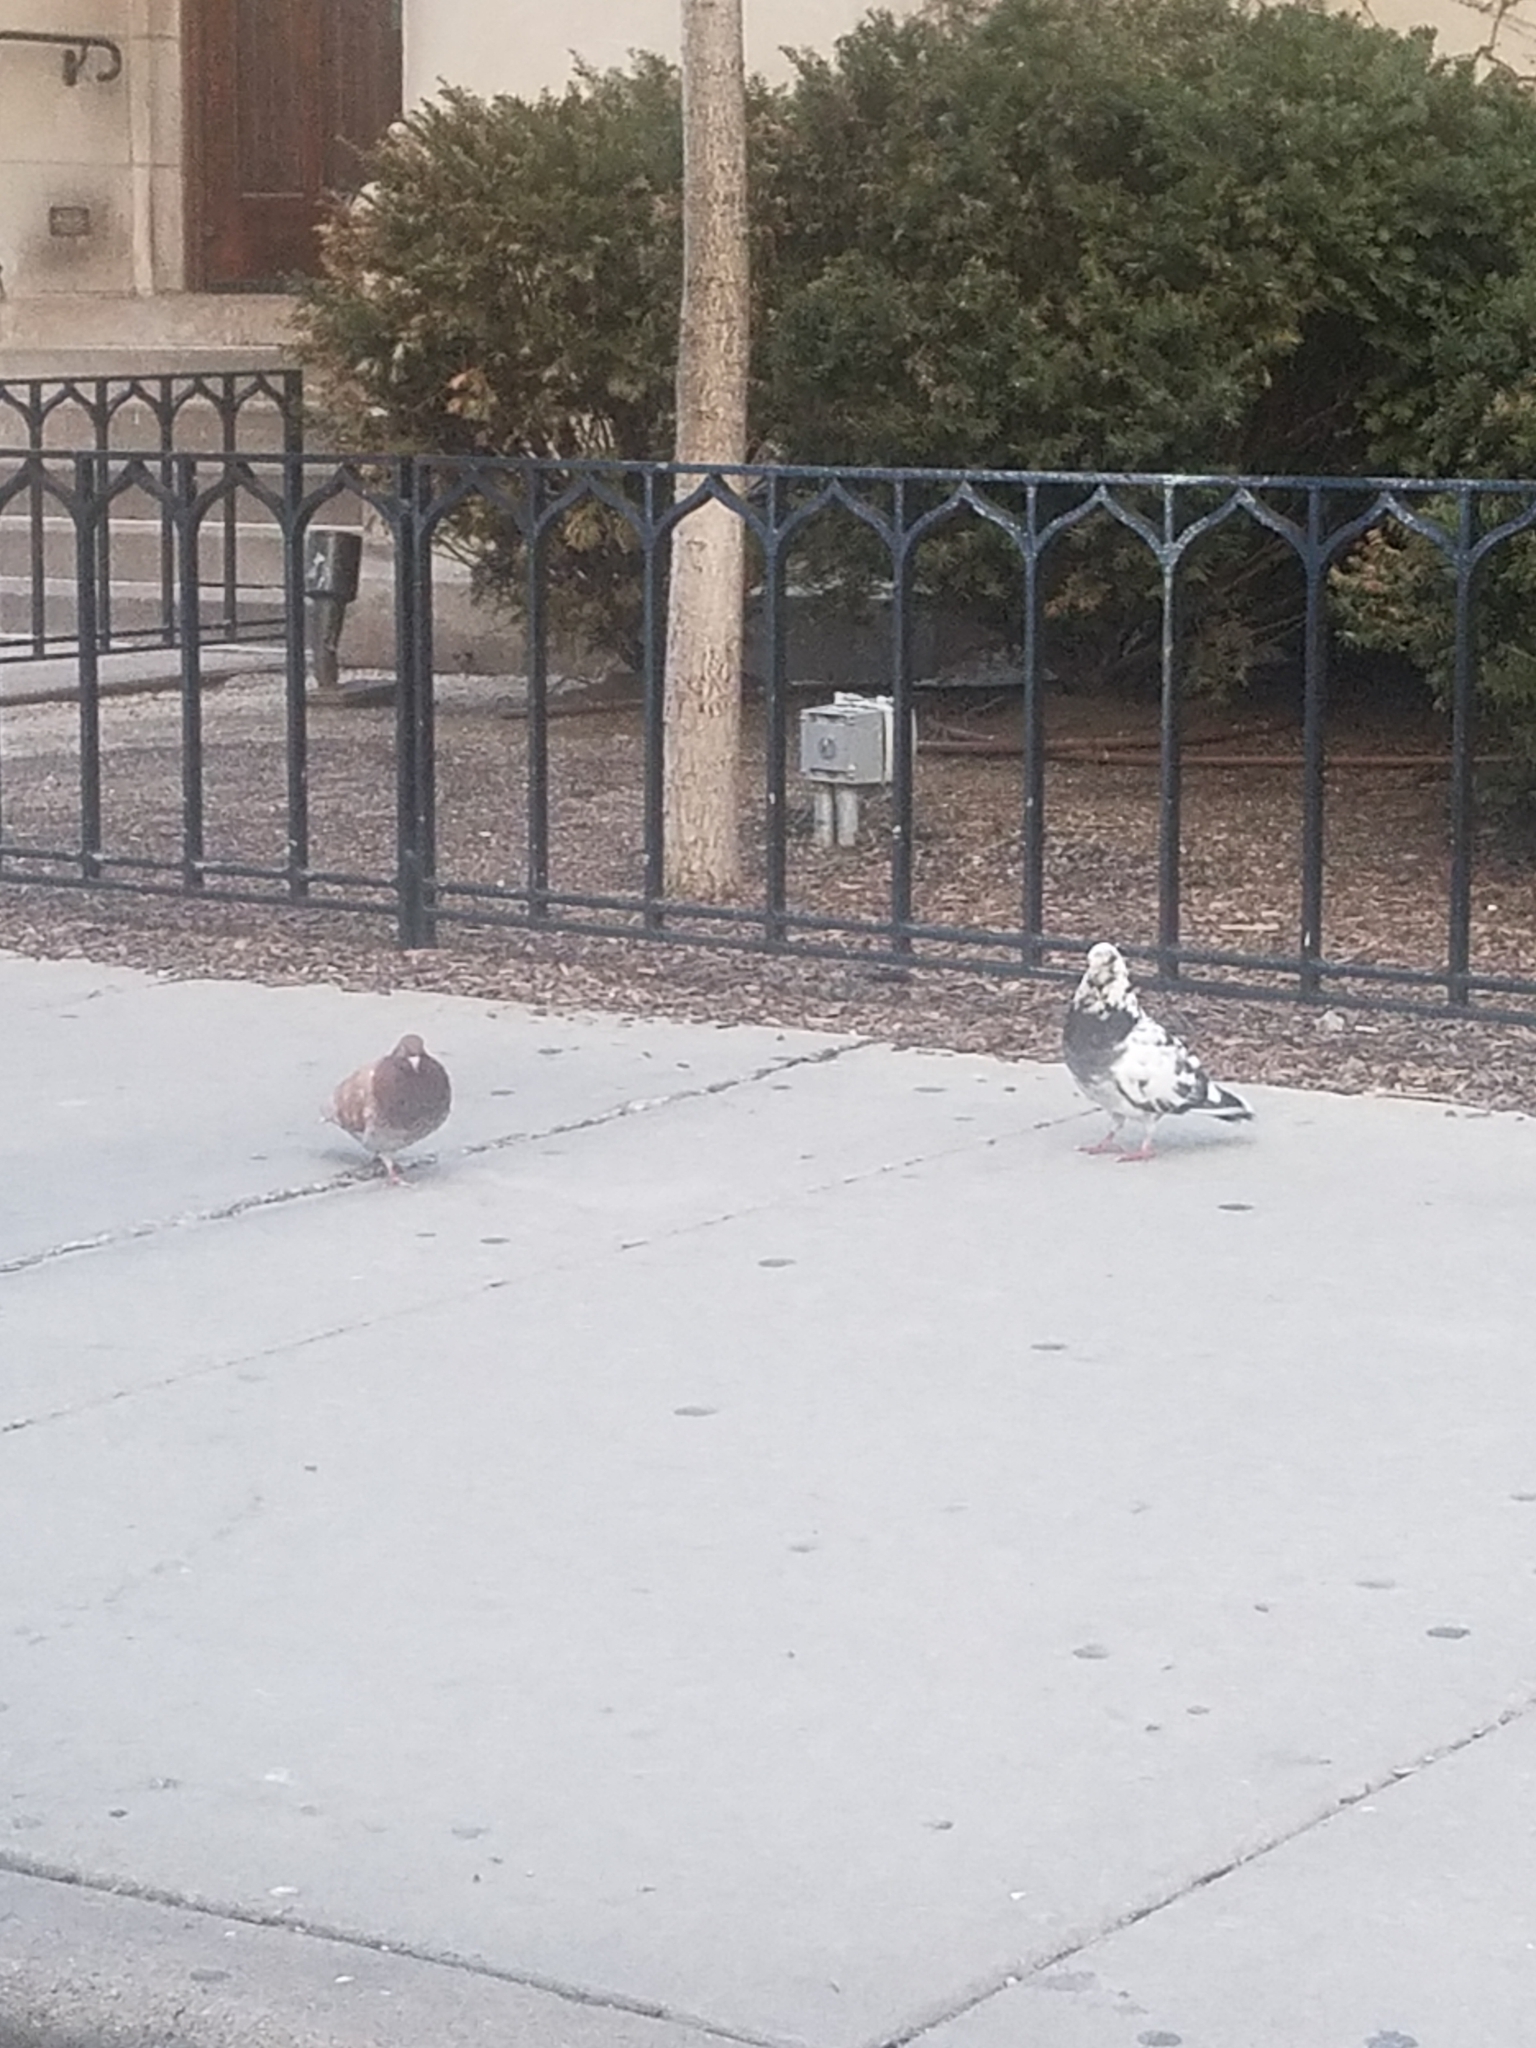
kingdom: Animalia
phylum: Chordata
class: Aves
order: Columbiformes
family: Columbidae
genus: Columba
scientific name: Columba livia
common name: Rock pigeon
